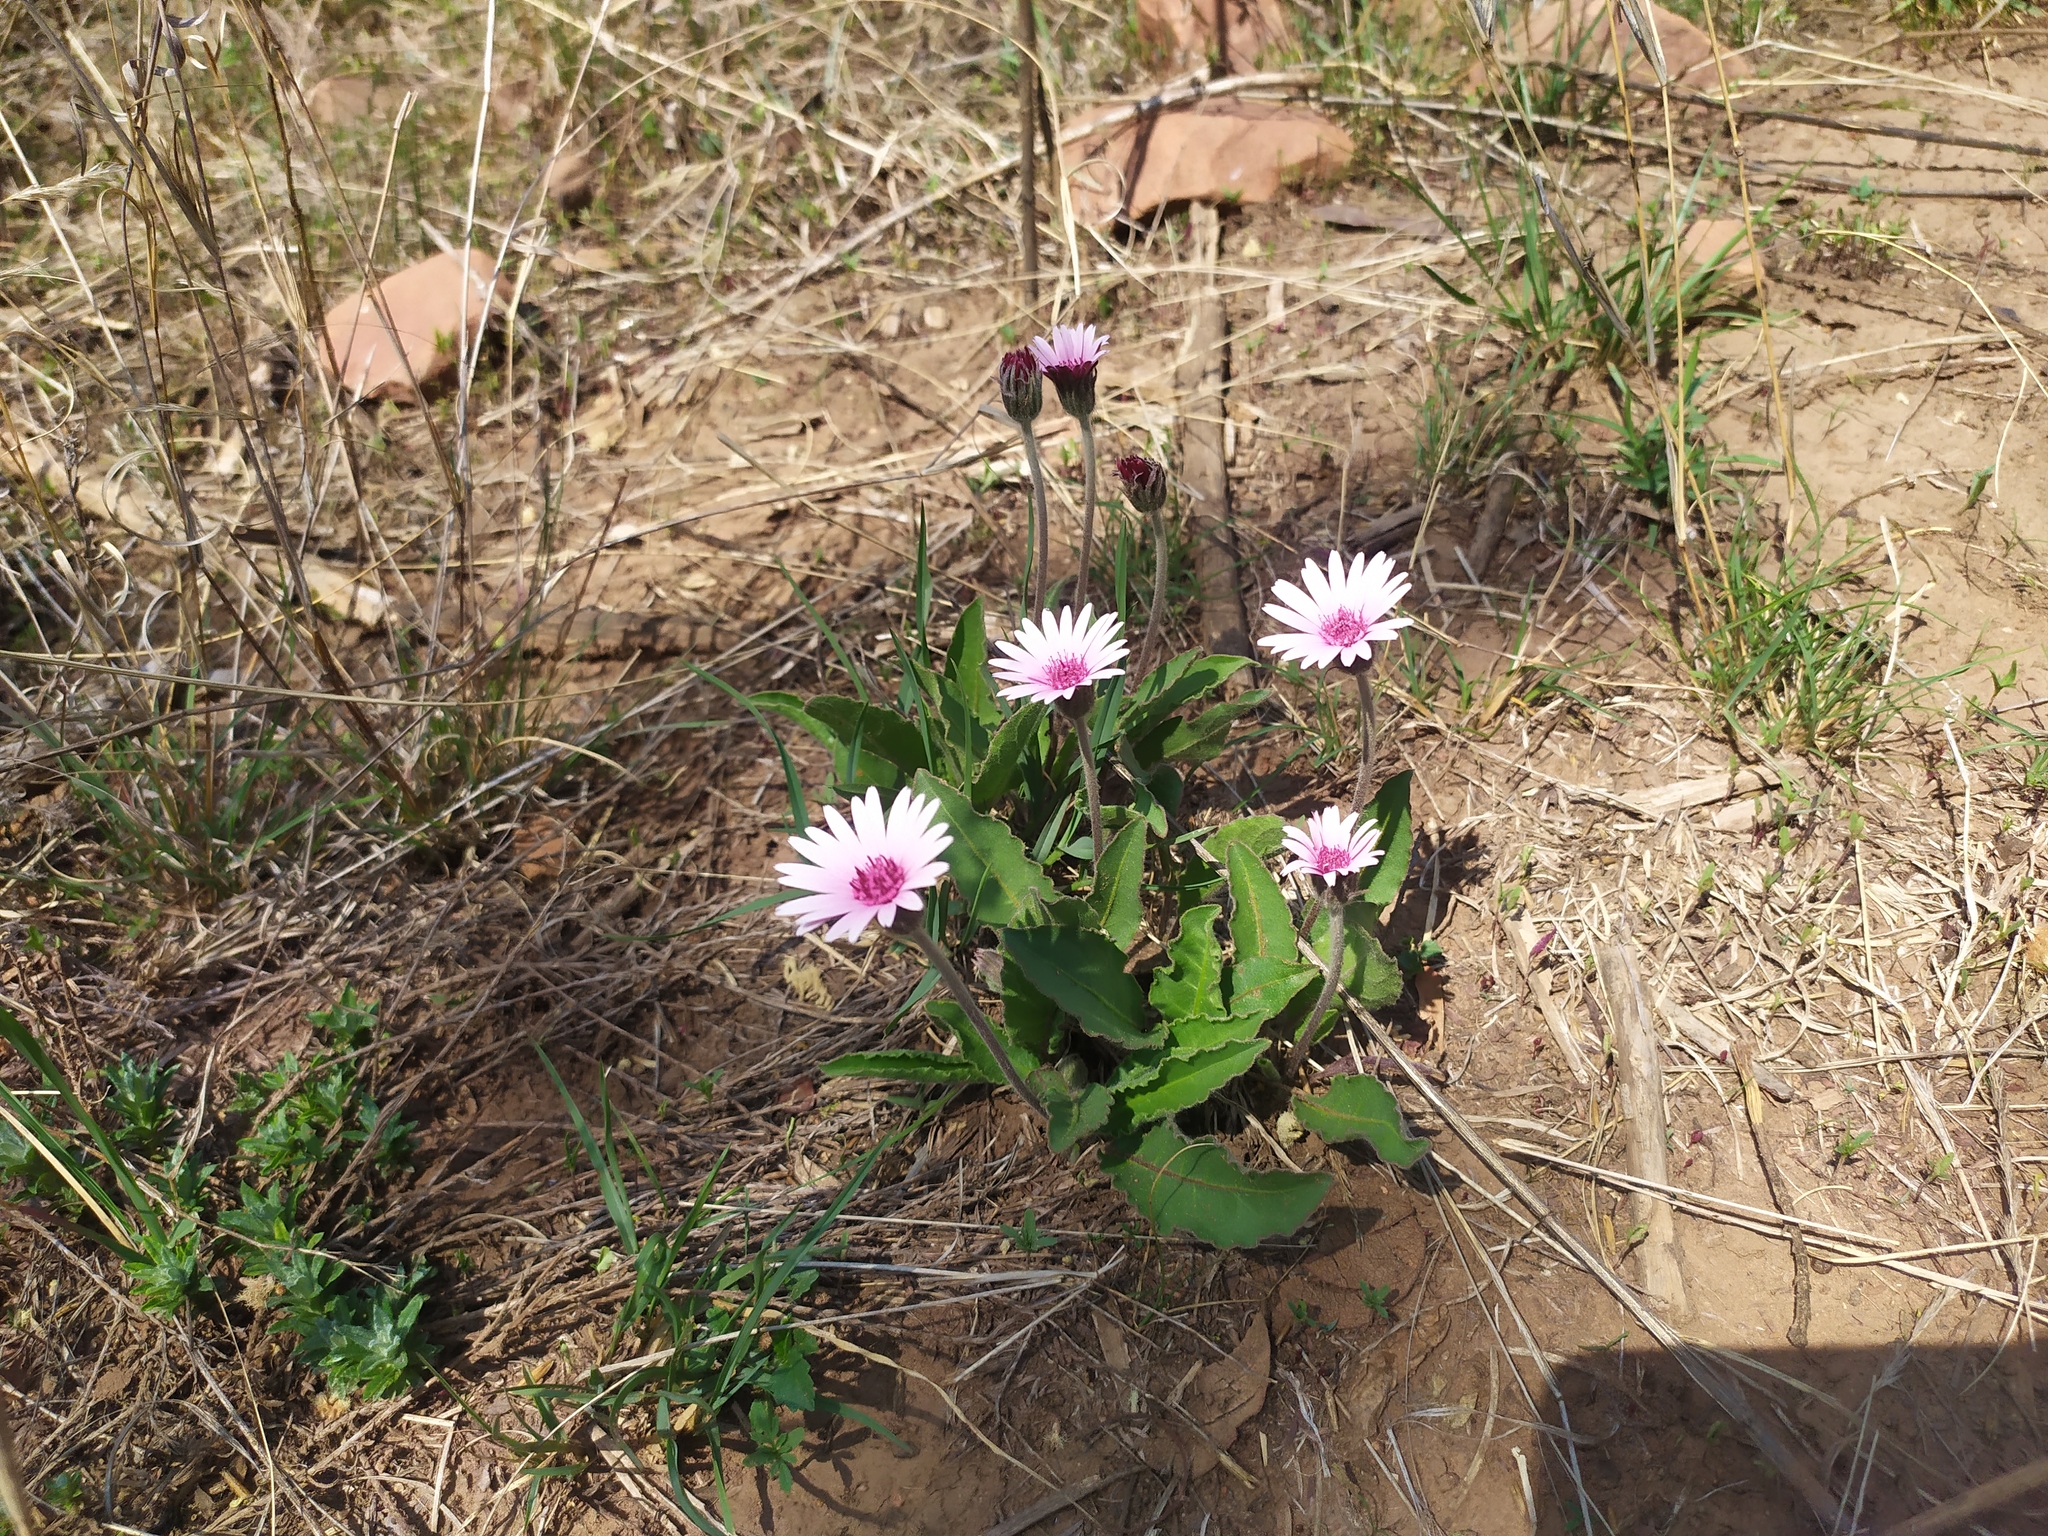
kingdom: Plantae
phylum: Tracheophyta
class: Magnoliopsida
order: Asterales
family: Asteraceae
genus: Gerbera
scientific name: Gerbera viridifolia
